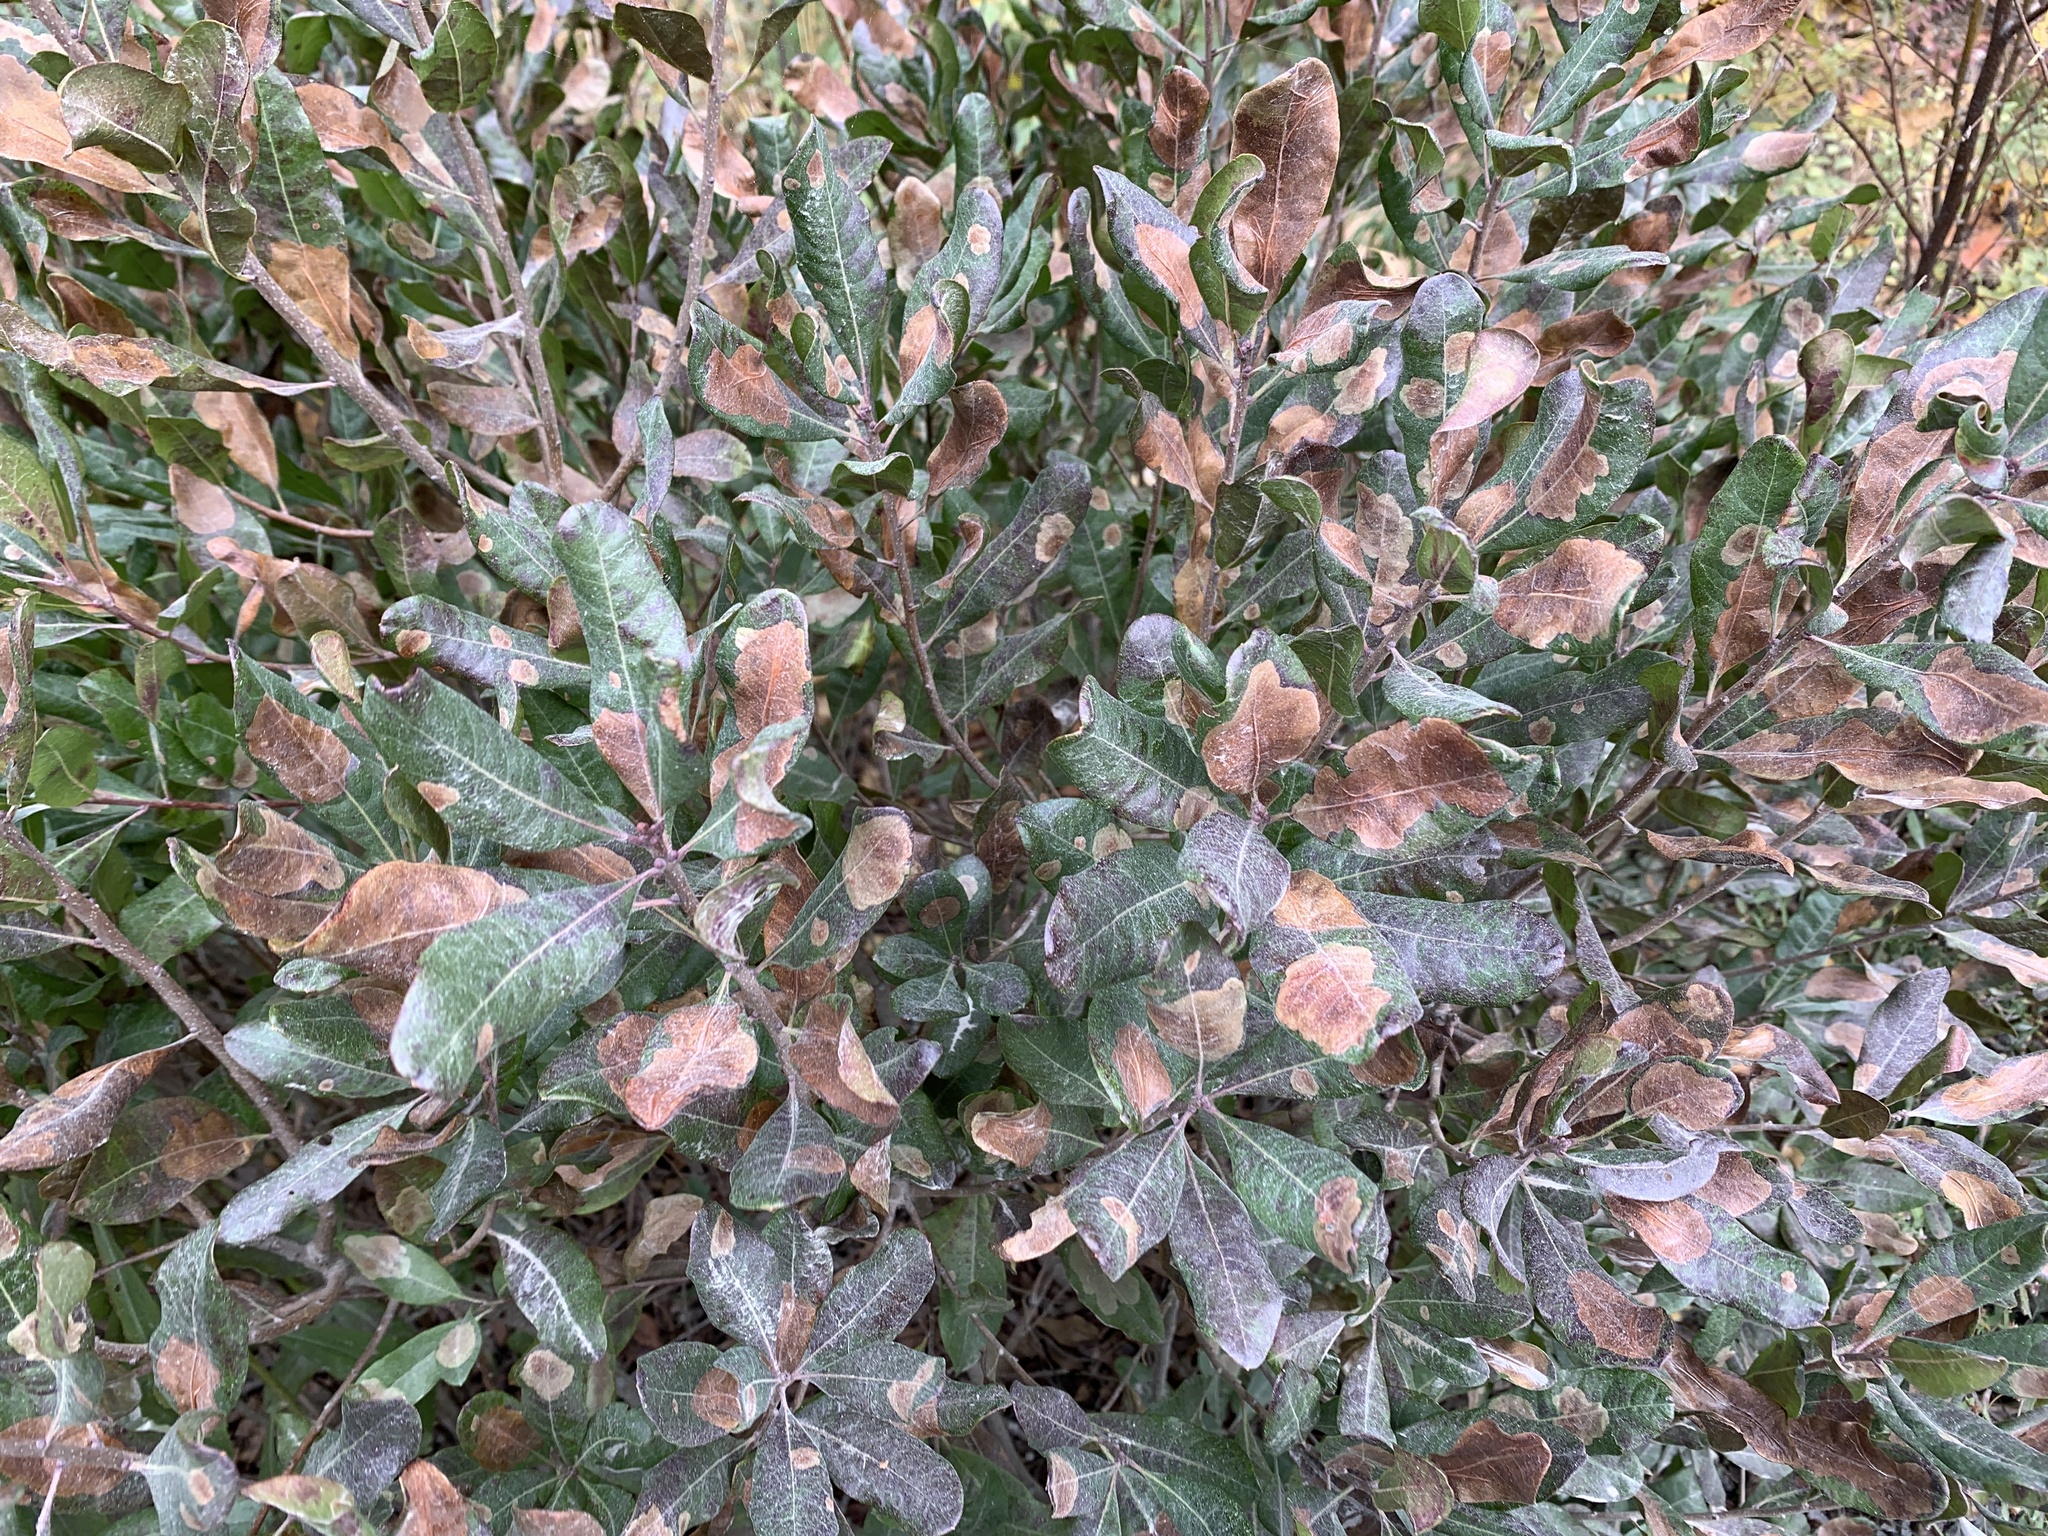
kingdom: Animalia
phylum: Arthropoda
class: Insecta
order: Lepidoptera
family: Gracillariidae
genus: Cameraria
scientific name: Cameraria picturatella
